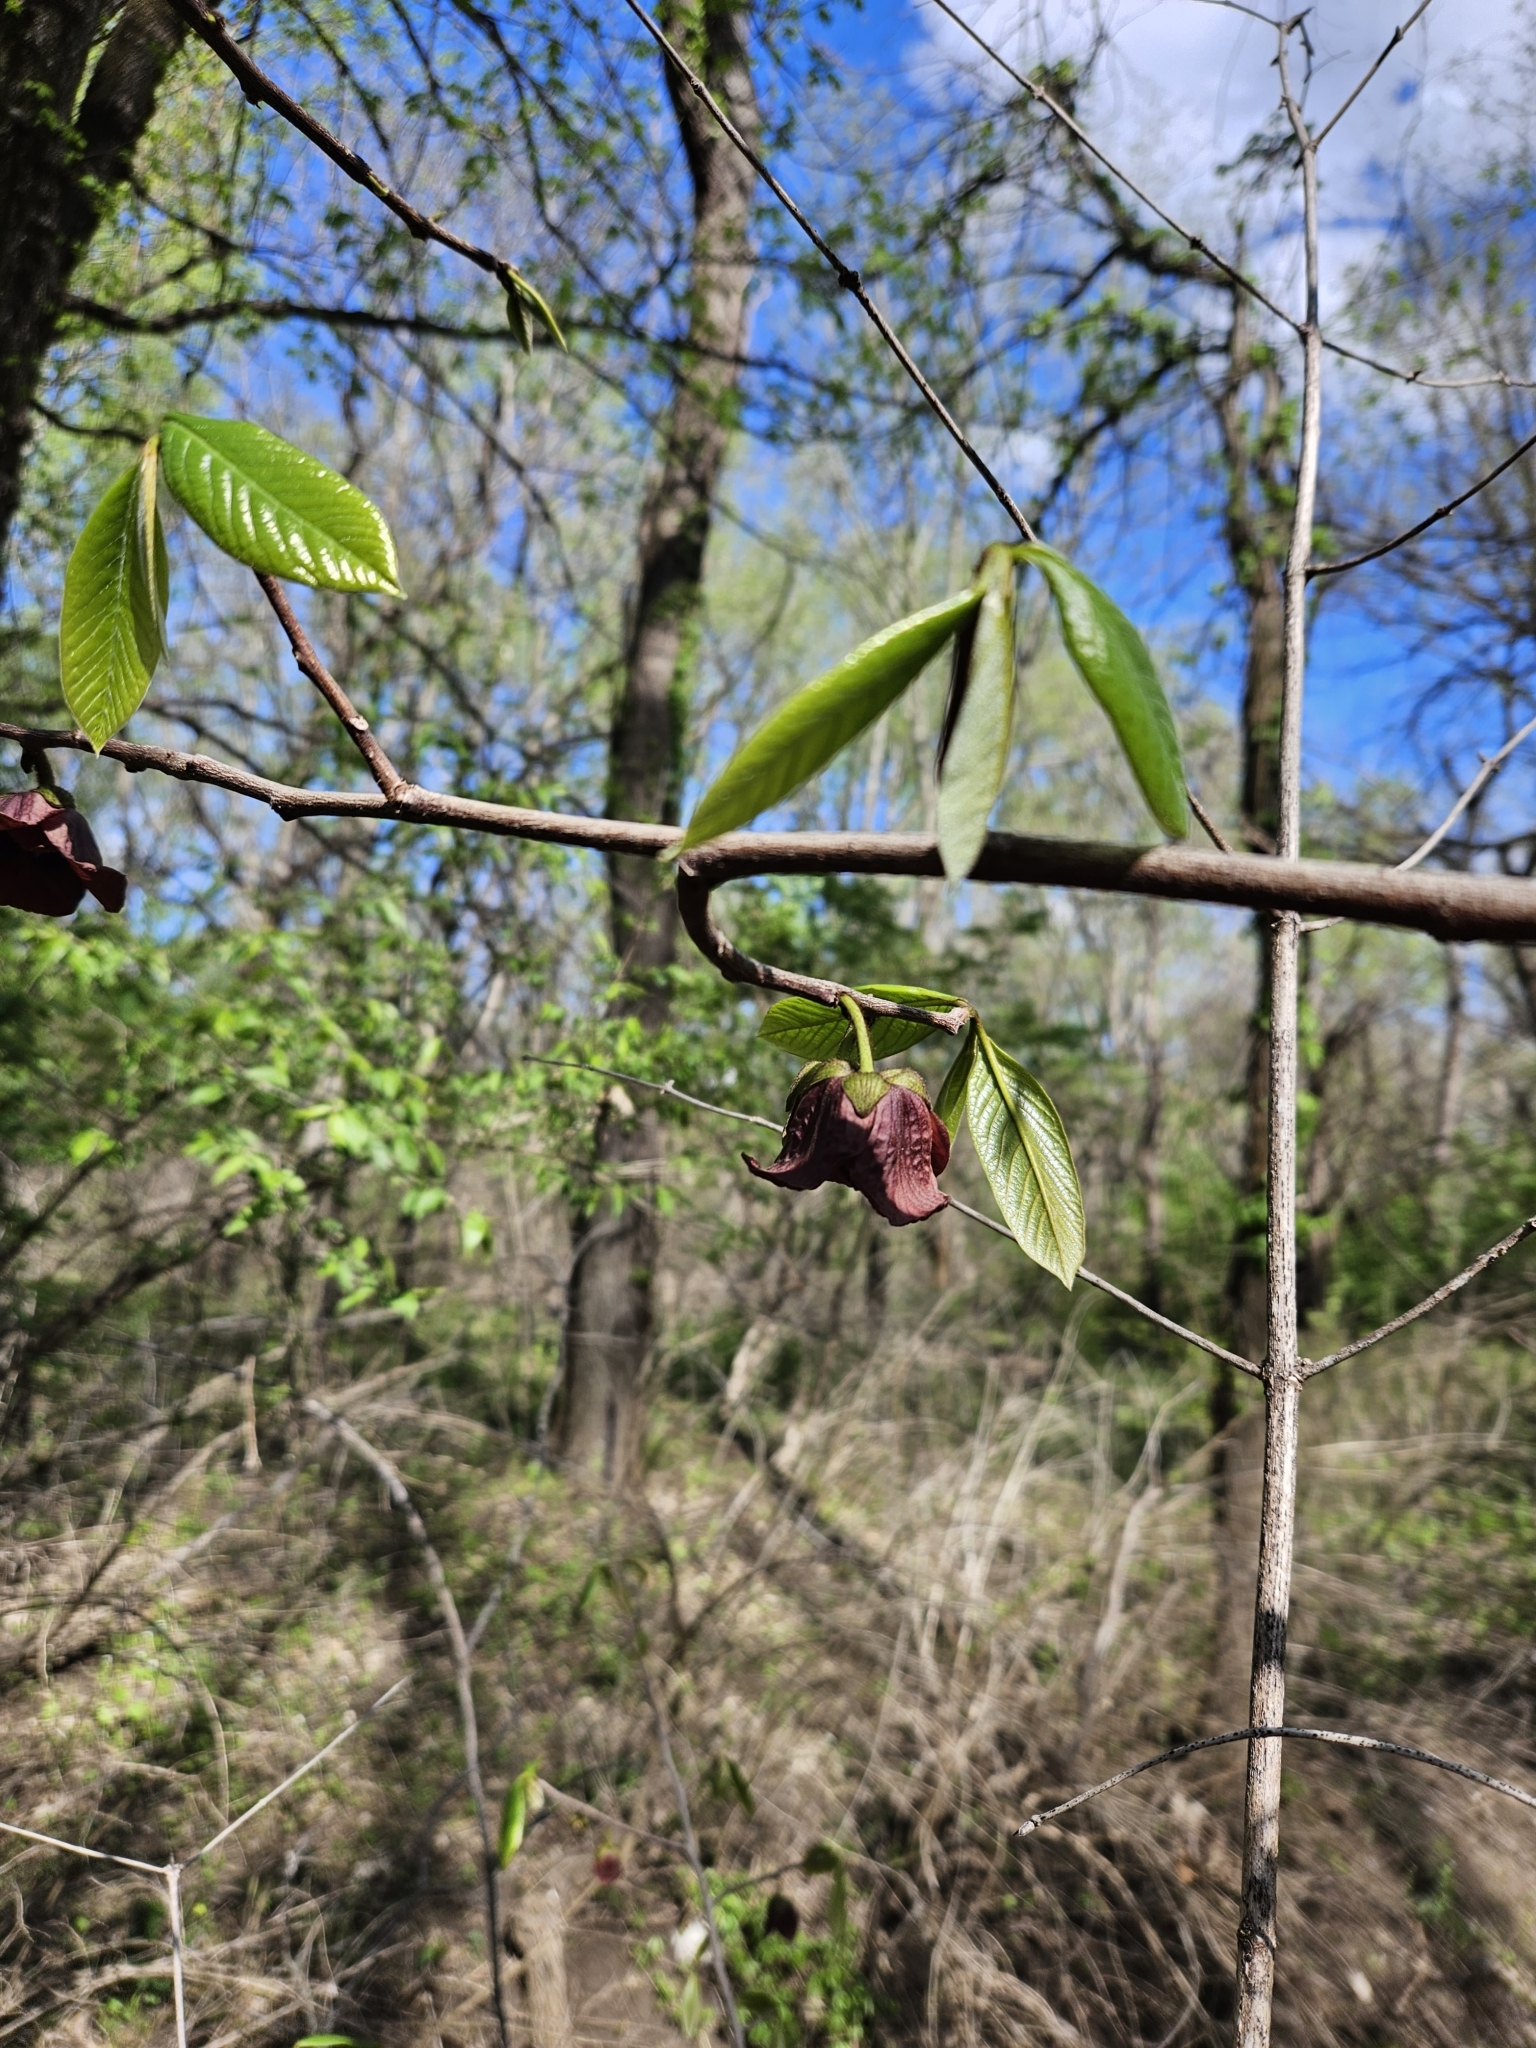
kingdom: Plantae
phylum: Tracheophyta
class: Magnoliopsida
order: Magnoliales
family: Annonaceae
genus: Asimina
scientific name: Asimina triloba
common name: Dog-banana
